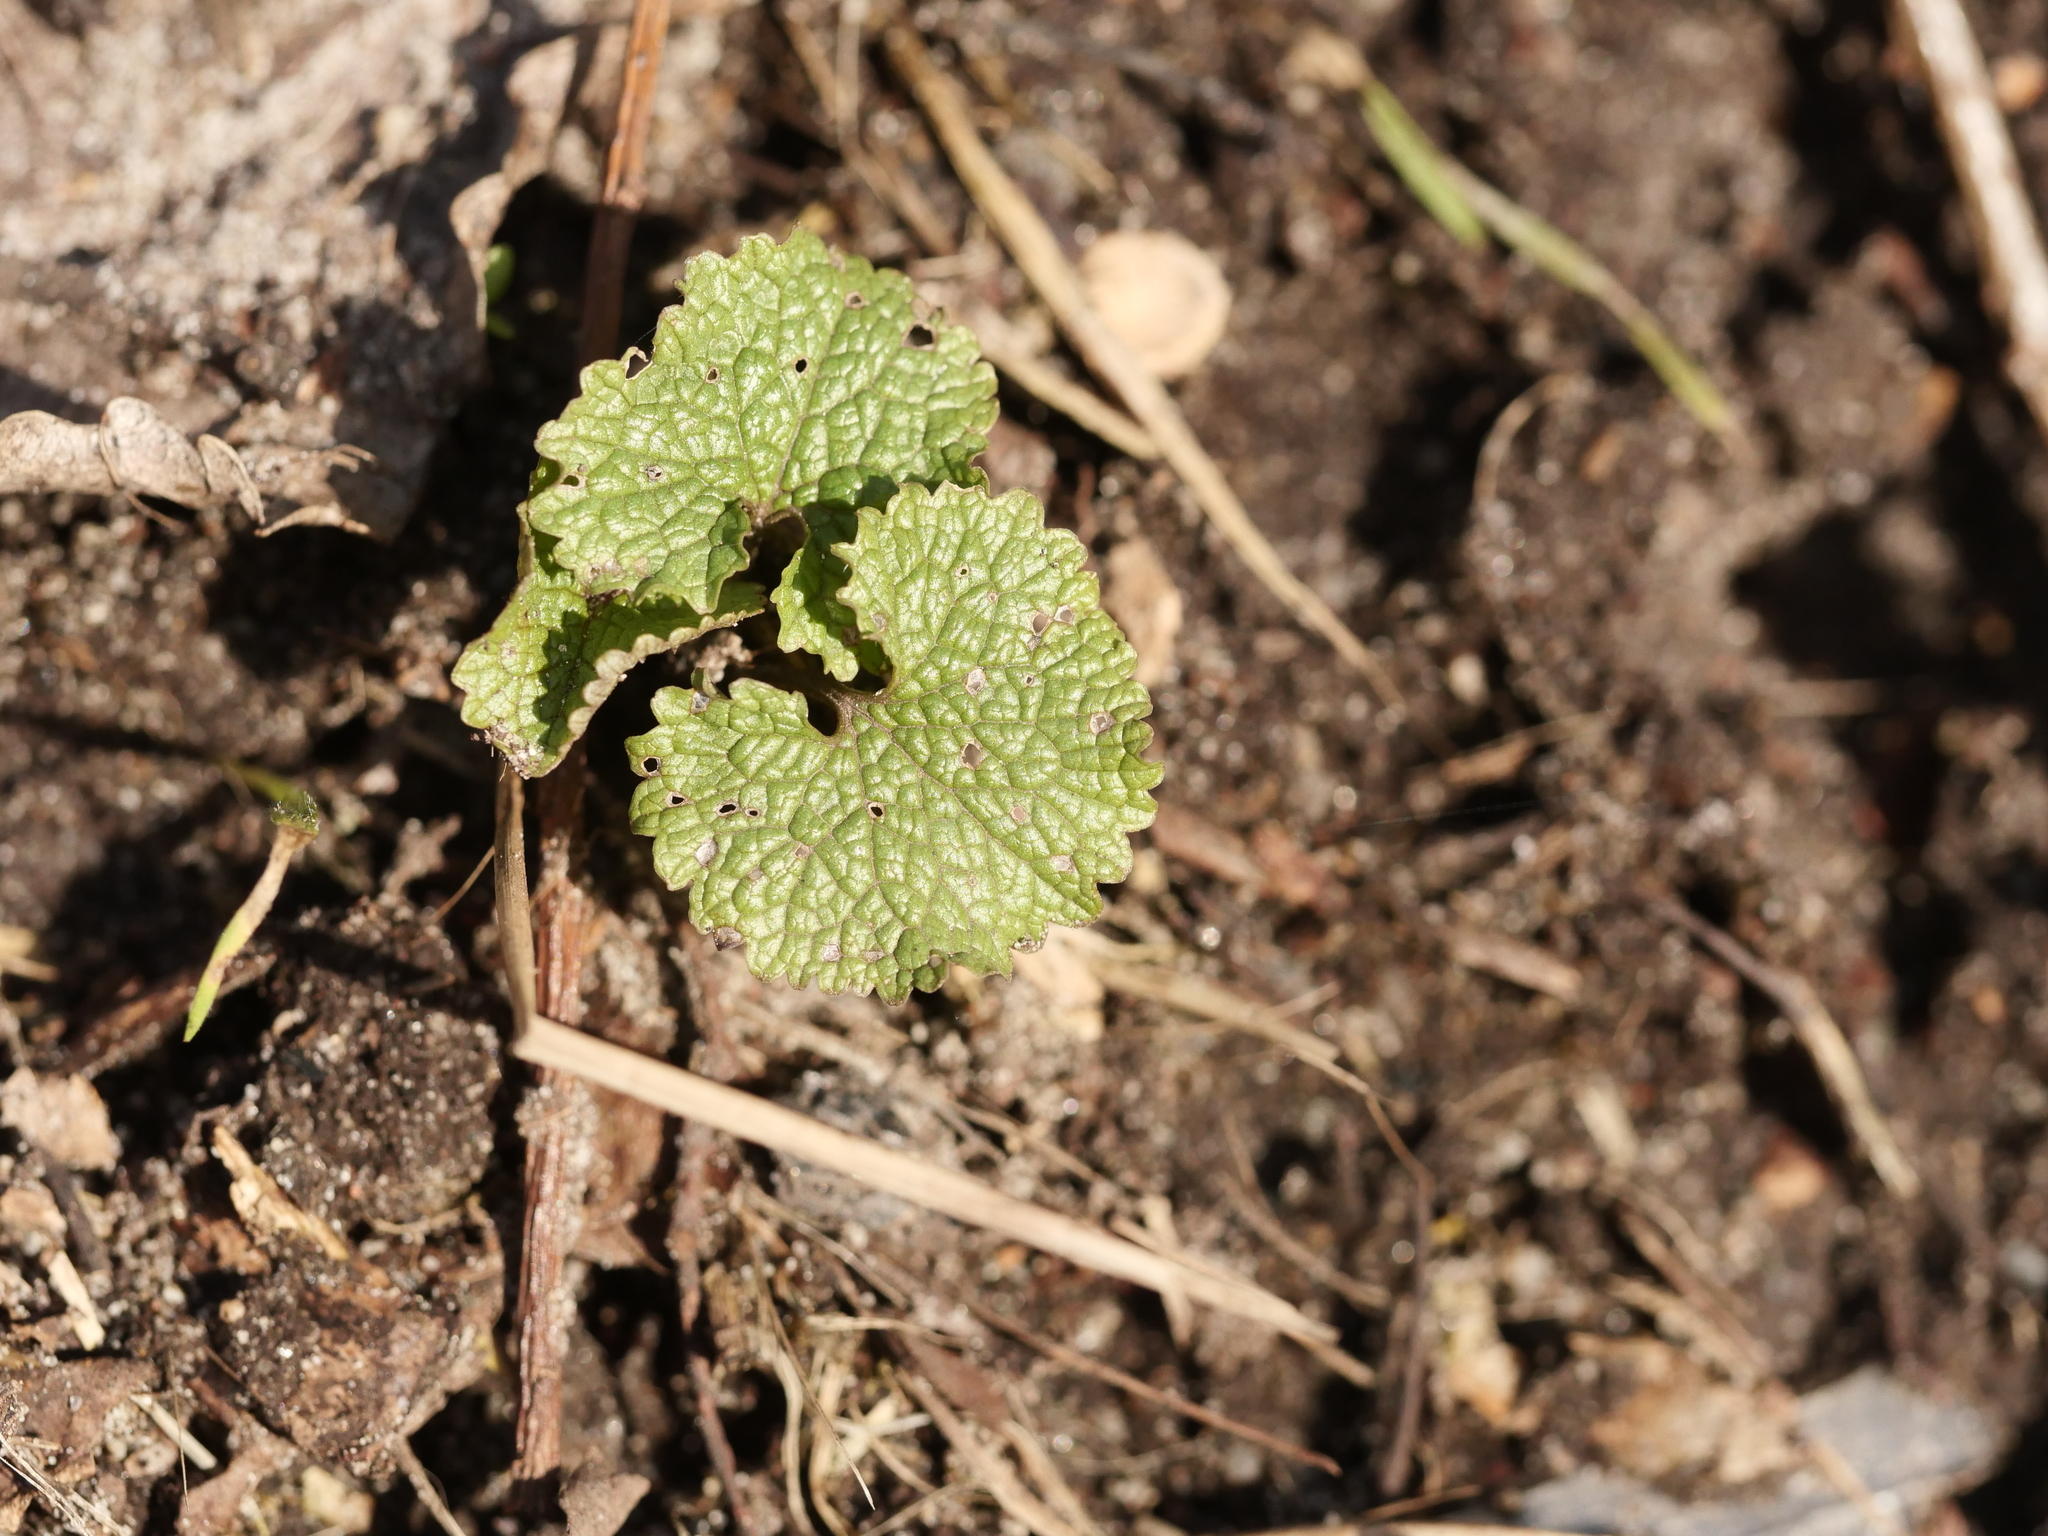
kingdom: Plantae
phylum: Tracheophyta
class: Magnoliopsida
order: Brassicales
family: Brassicaceae
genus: Alliaria
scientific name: Alliaria petiolata
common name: Garlic mustard
